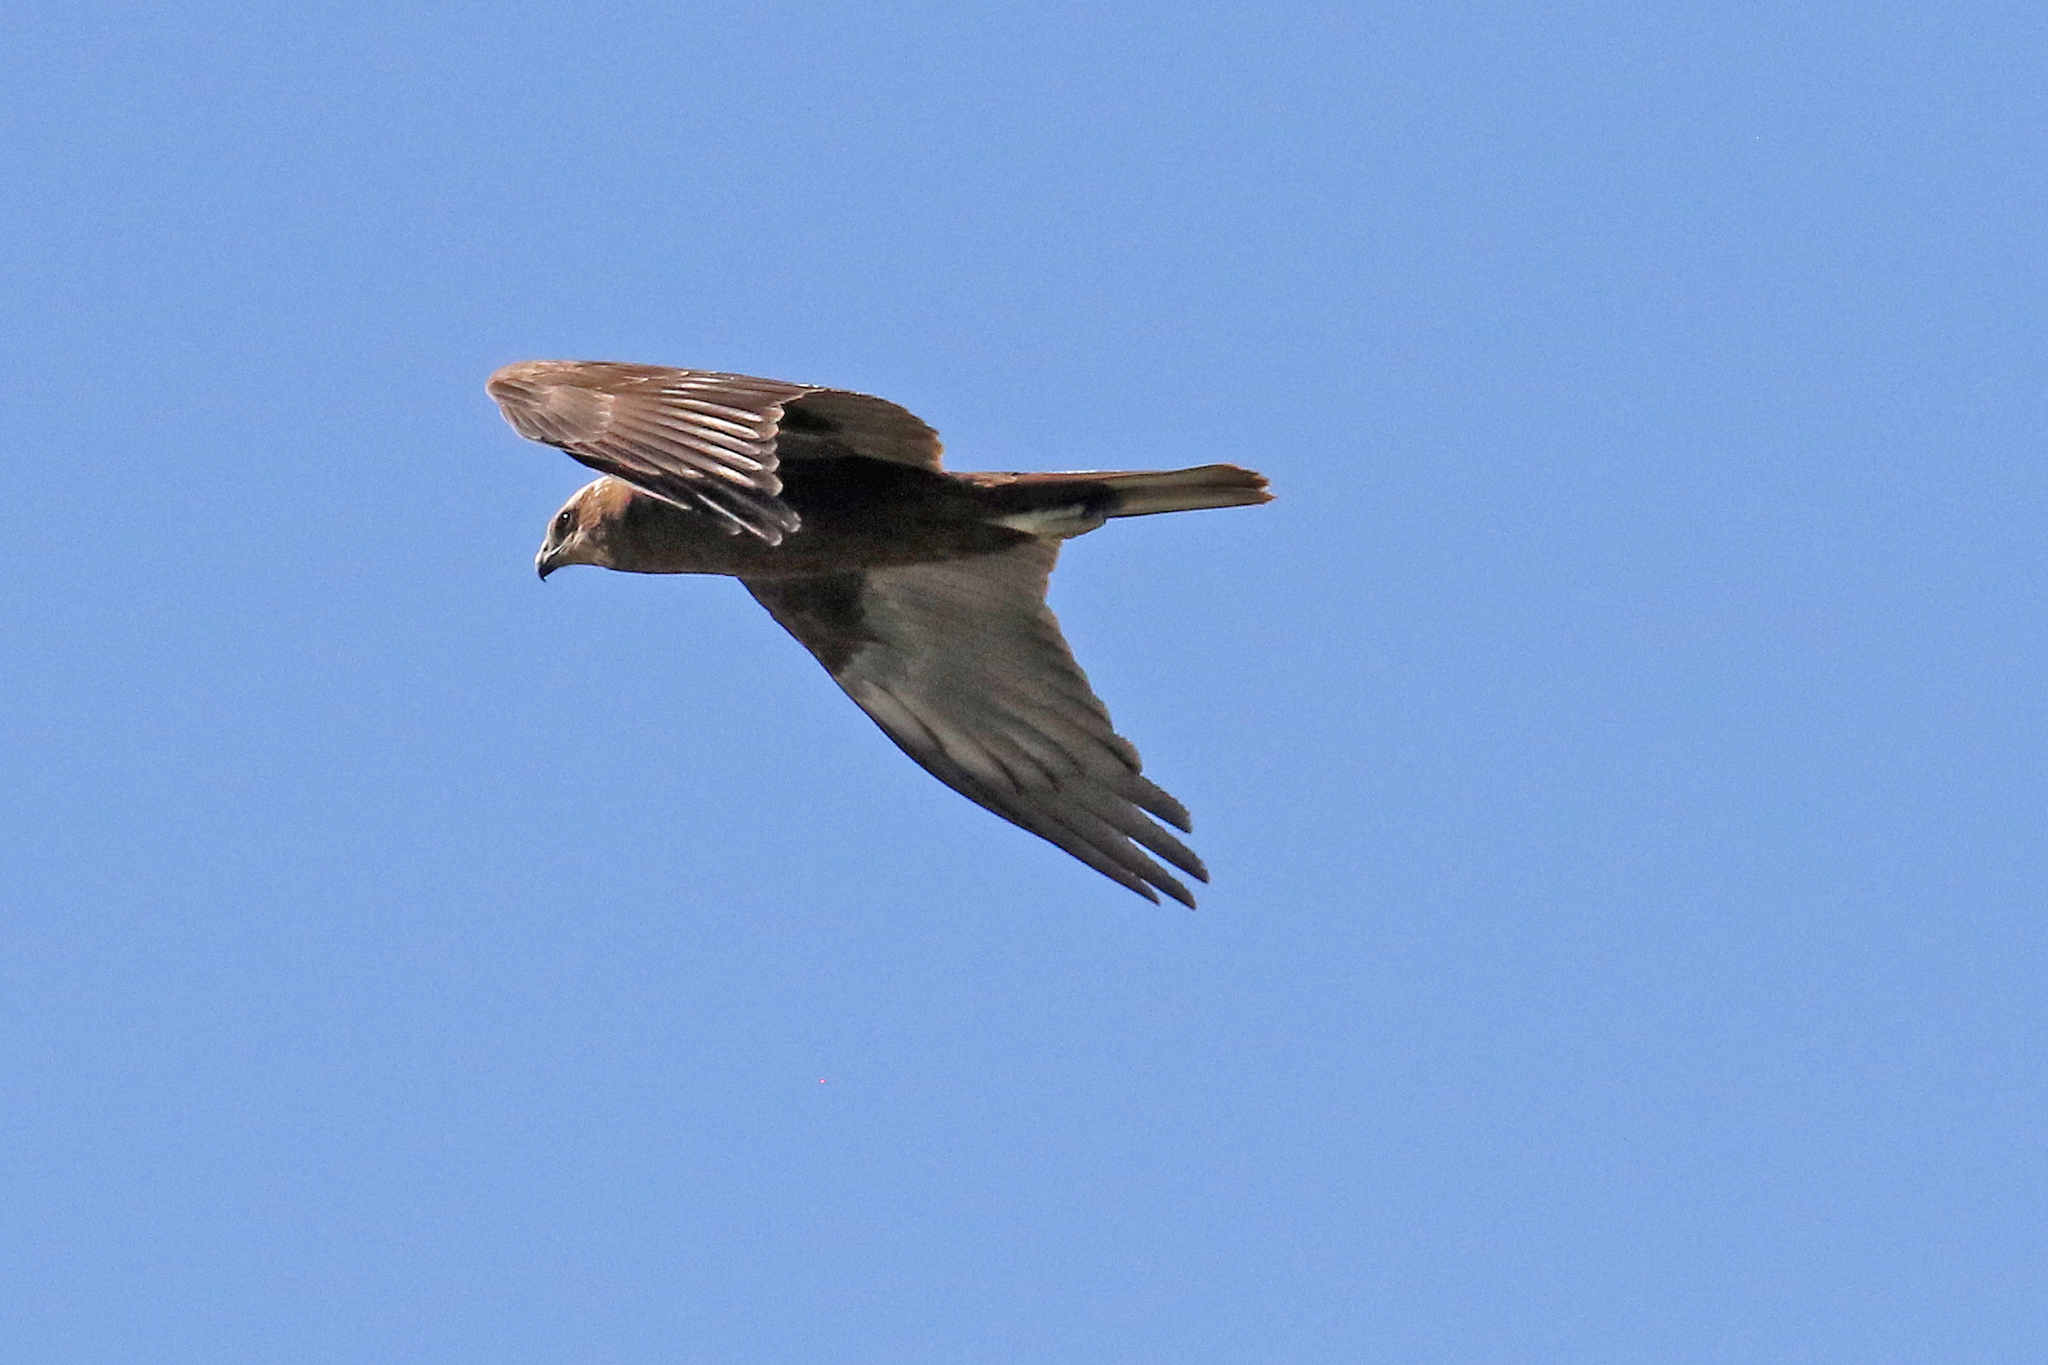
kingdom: Animalia
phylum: Chordata
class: Aves
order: Accipitriformes
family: Accipitridae
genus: Circus
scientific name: Circus aeruginosus
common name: Western marsh harrier
